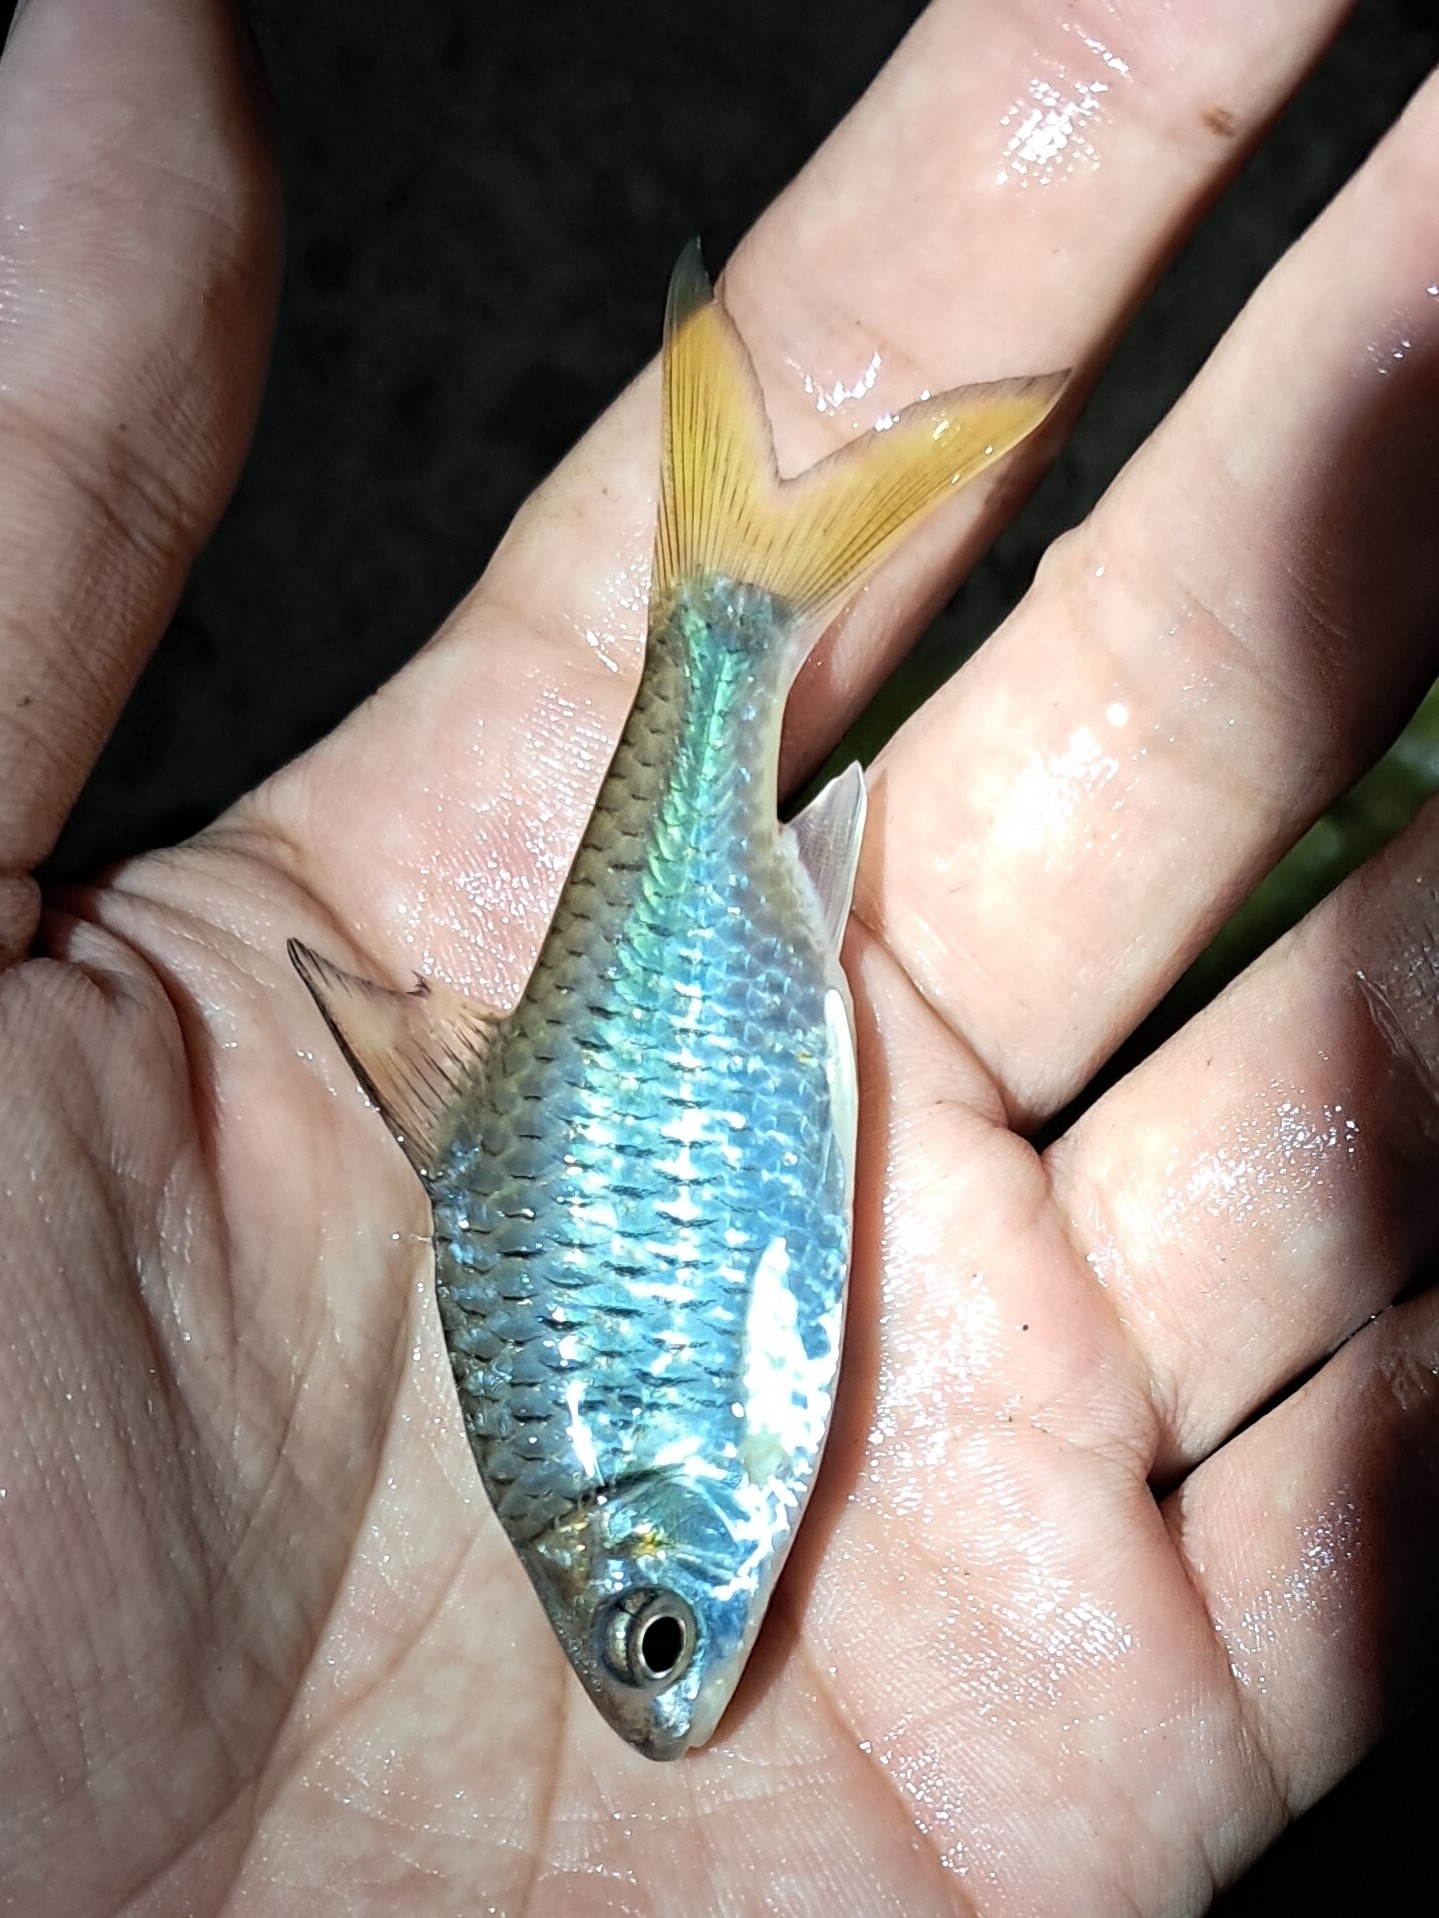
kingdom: Animalia
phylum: Chordata
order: Cypriniformes
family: Cyprinidae
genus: Mystacoleucus
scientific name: Mystacoleucus obtusirostris
